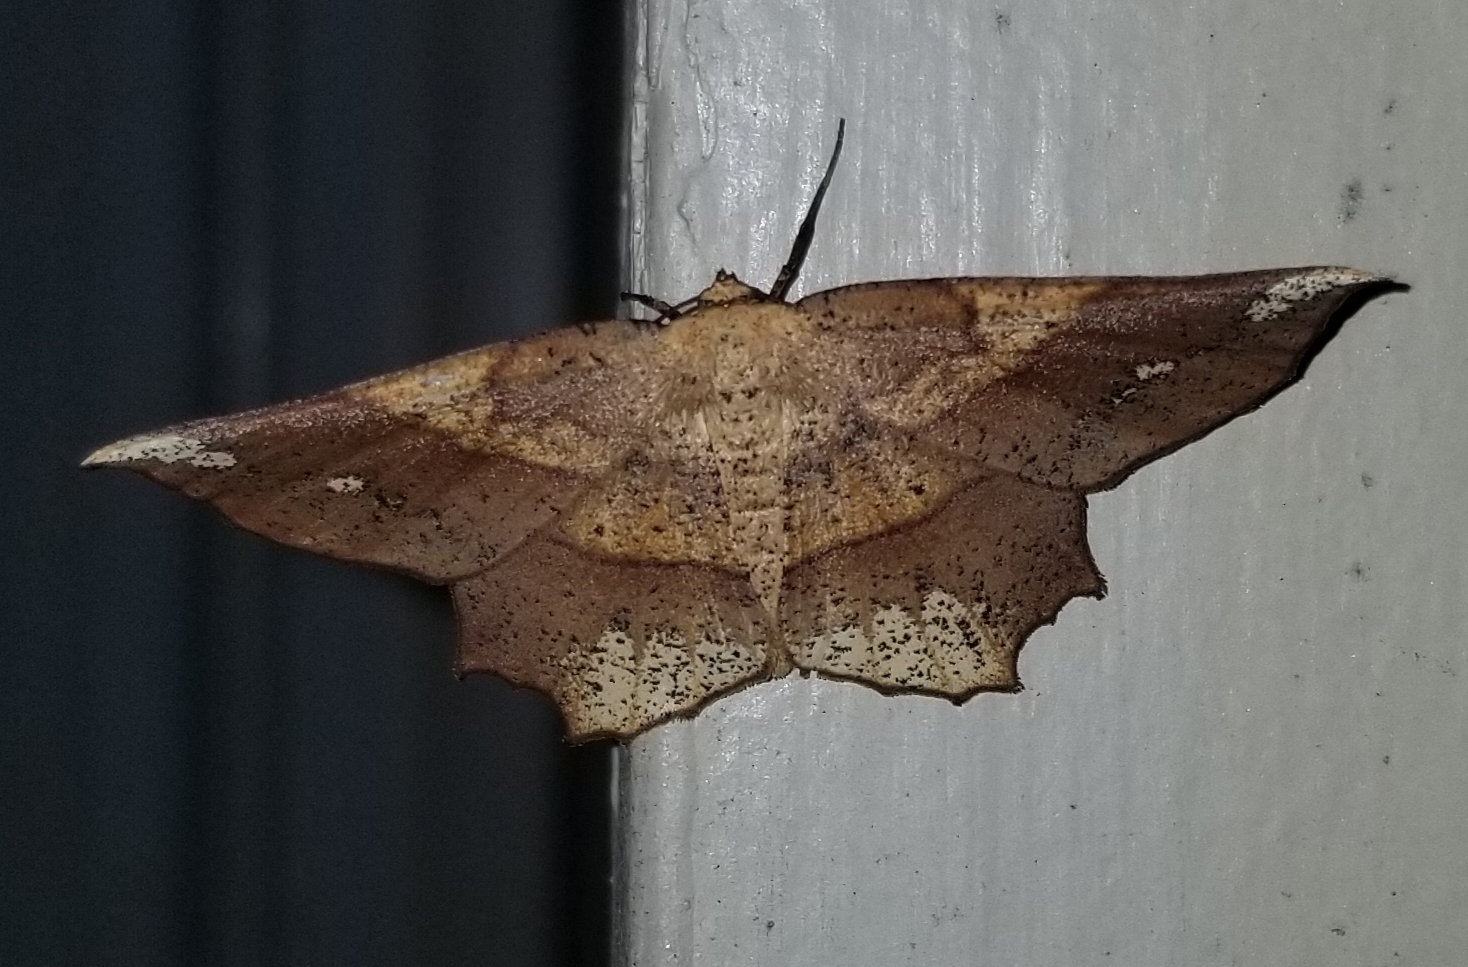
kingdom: Animalia
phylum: Arthropoda
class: Insecta
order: Lepidoptera
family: Geometridae
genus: Euchlaena
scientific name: Euchlaena amoenaria
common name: Deep yellow euchlaena
